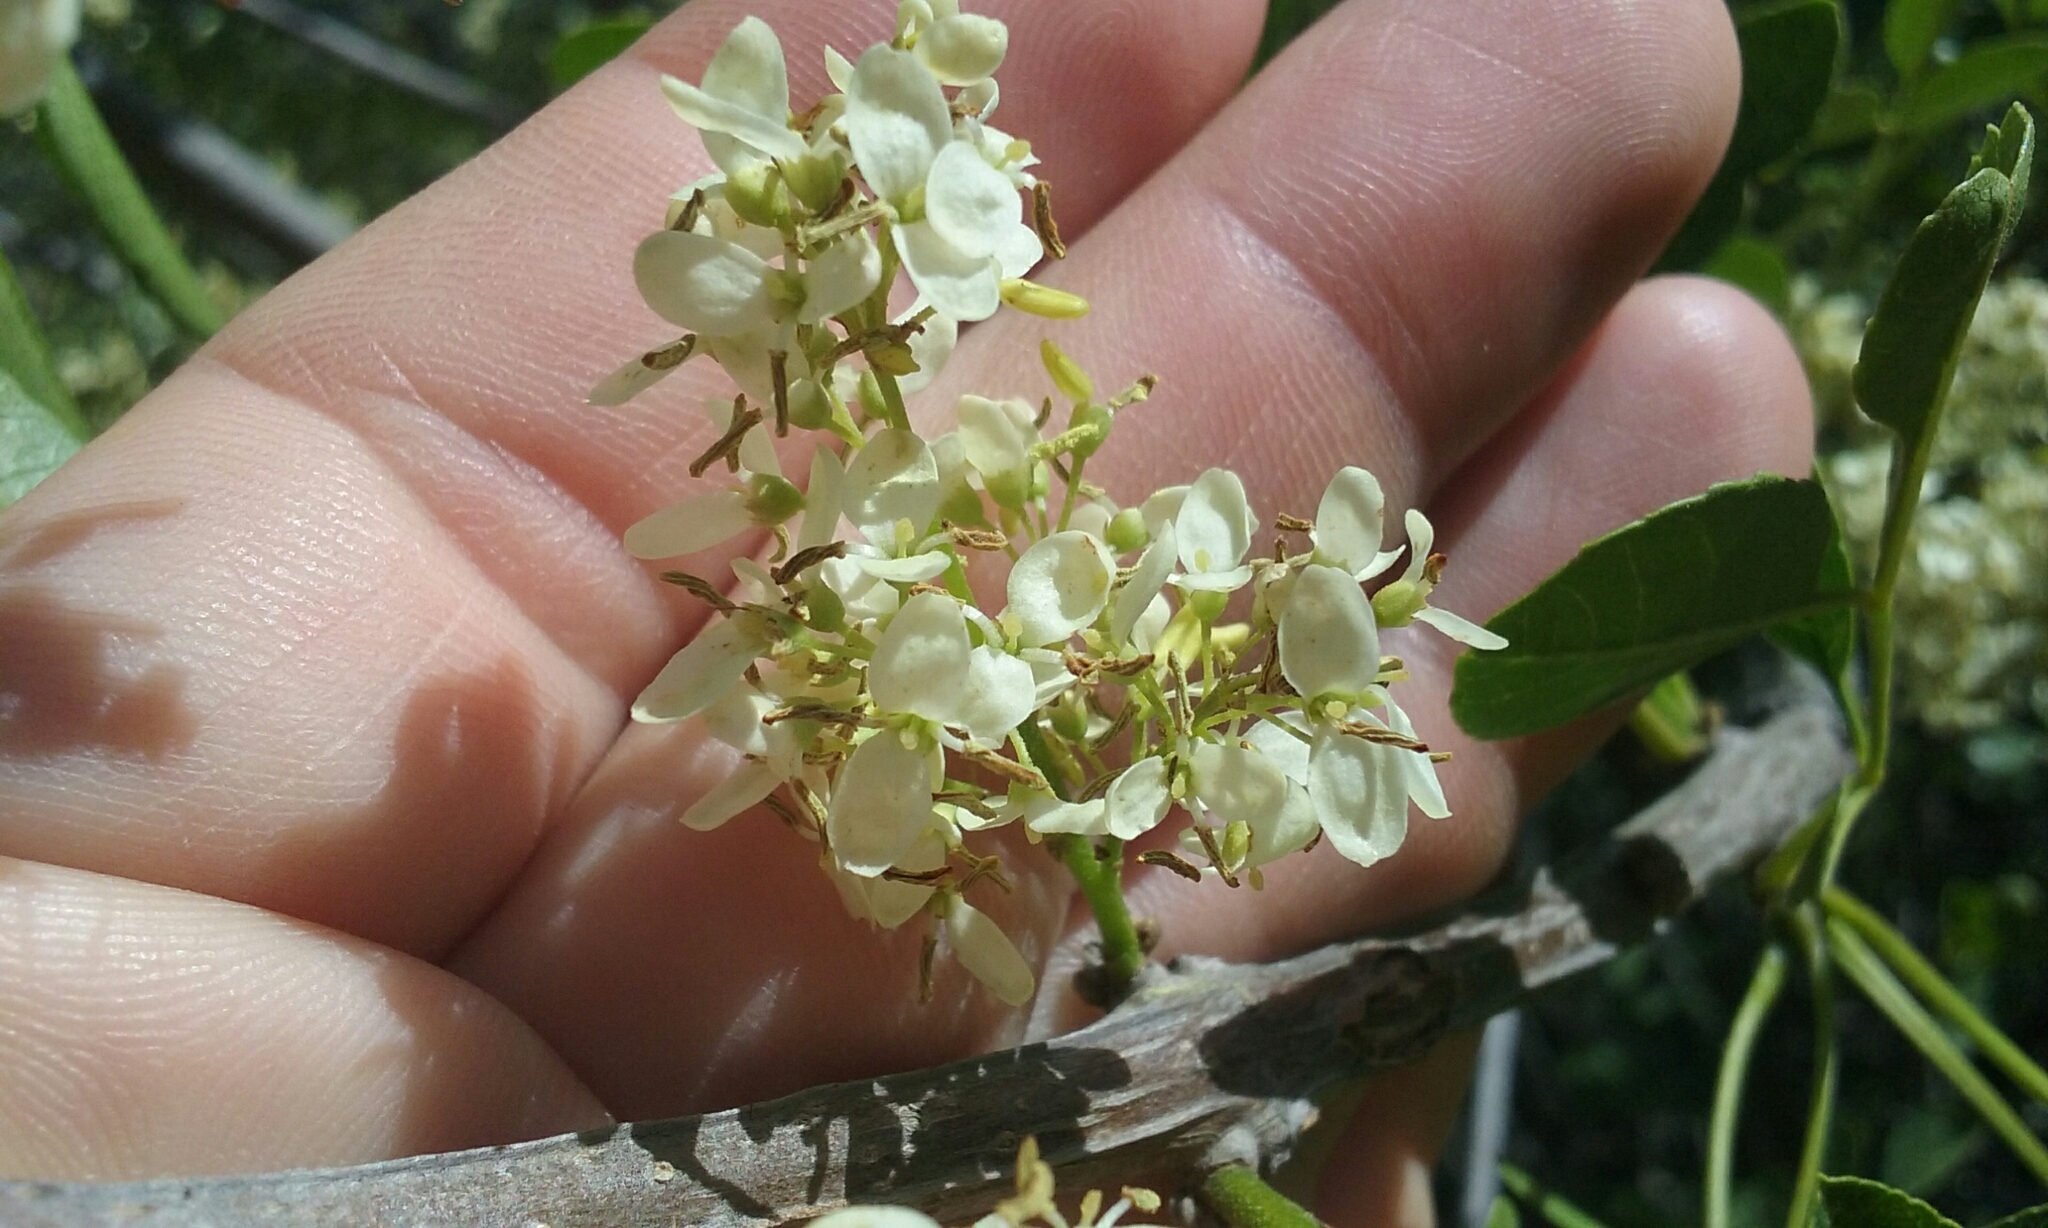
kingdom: Plantae
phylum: Tracheophyta
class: Magnoliopsida
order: Lamiales
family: Oleaceae
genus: Fraxinus
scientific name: Fraxinus dipetala
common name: California ash
